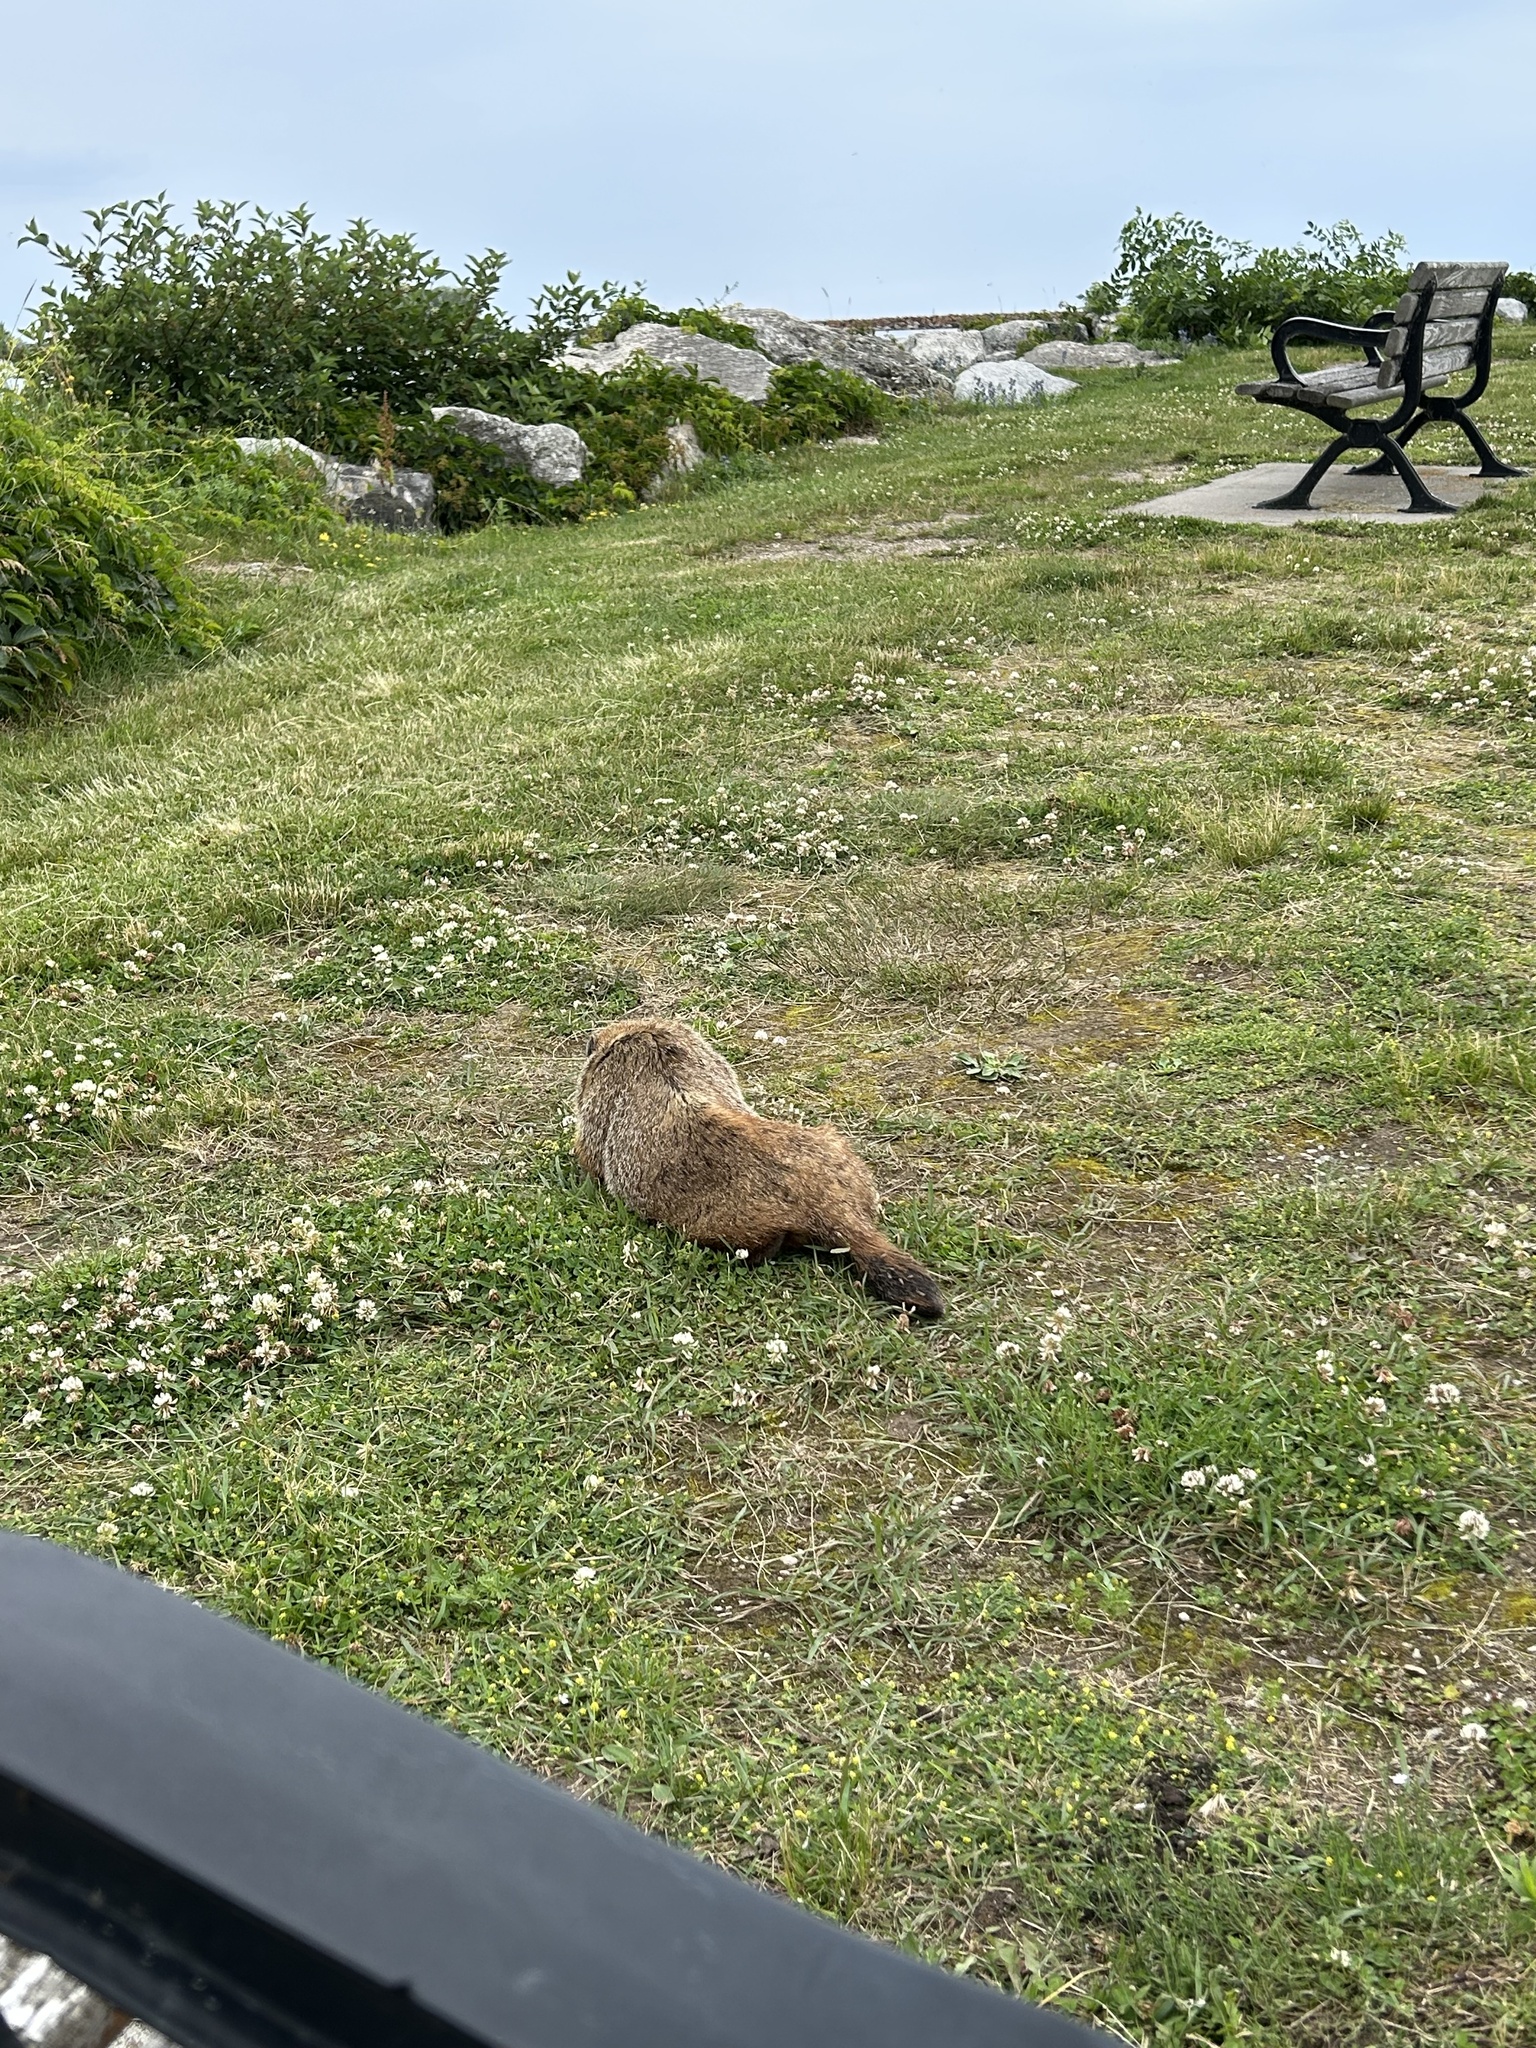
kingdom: Animalia
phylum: Chordata
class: Mammalia
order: Rodentia
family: Sciuridae
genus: Marmota
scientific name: Marmota monax
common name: Groundhog
